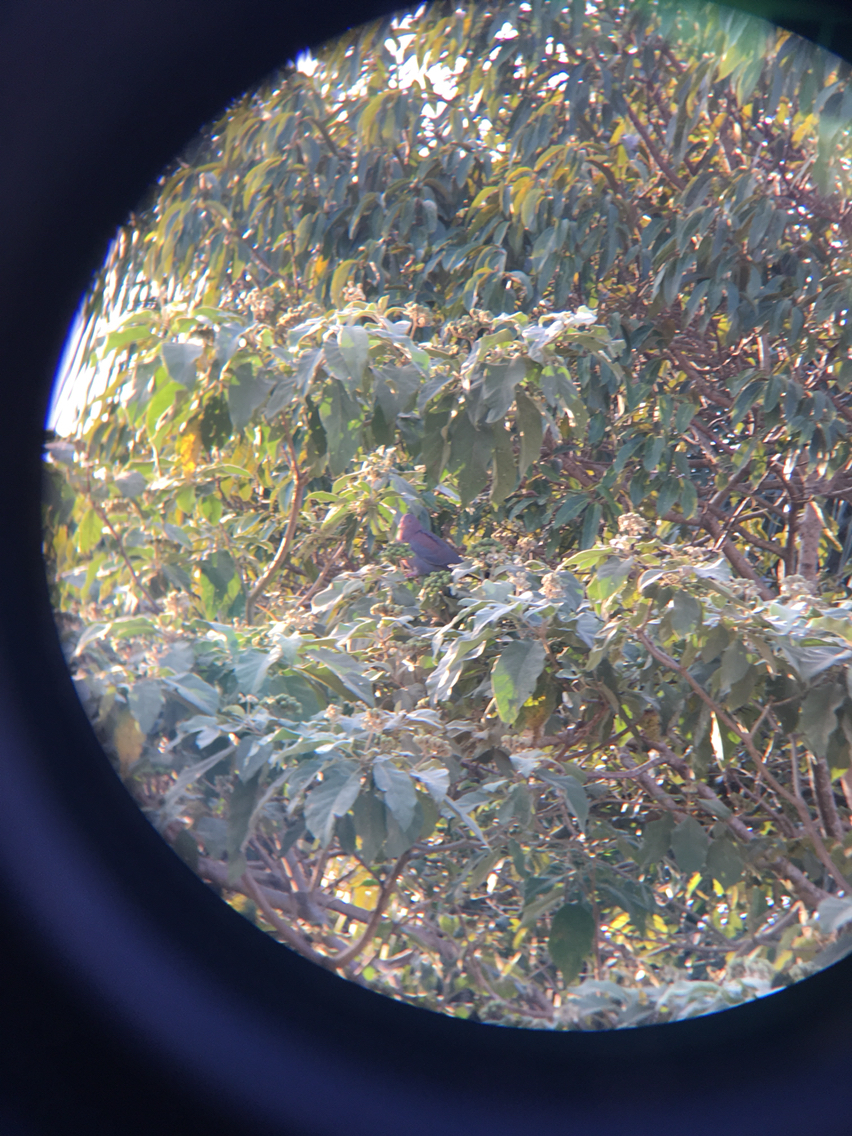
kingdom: Animalia
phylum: Chordata
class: Aves
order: Columbiformes
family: Columbidae
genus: Patagioenas
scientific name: Patagioenas flavirostris
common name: Red-billed pigeon
